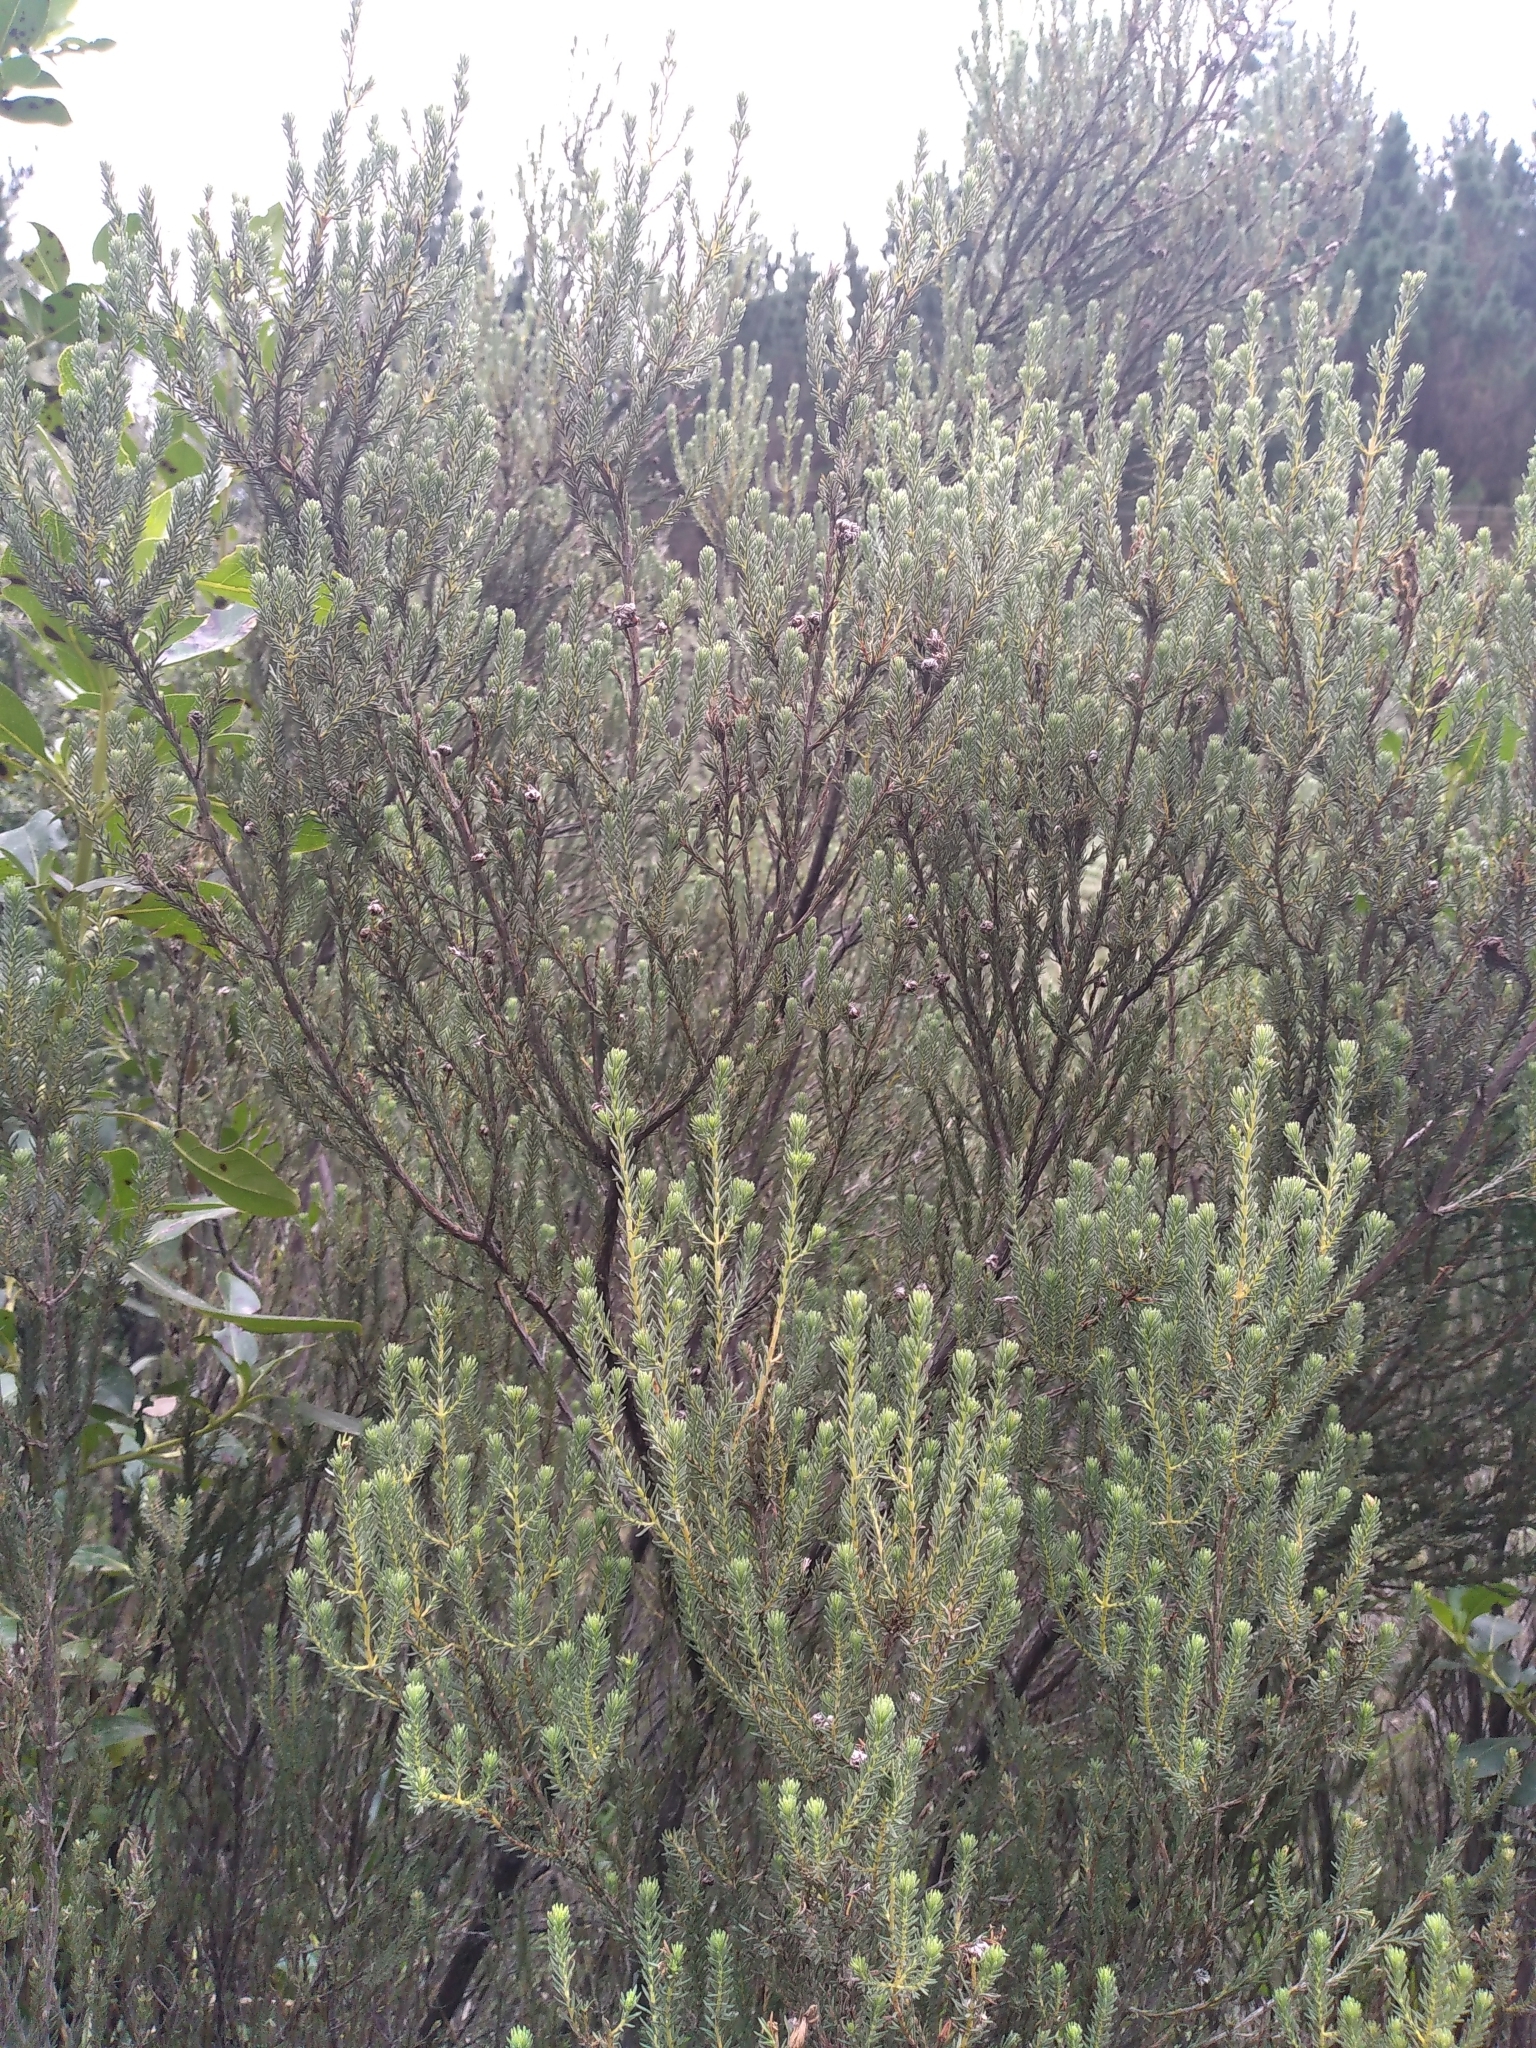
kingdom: Plantae
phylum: Tracheophyta
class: Magnoliopsida
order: Ericales
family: Ericaceae
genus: Erica
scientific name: Erica baccans
